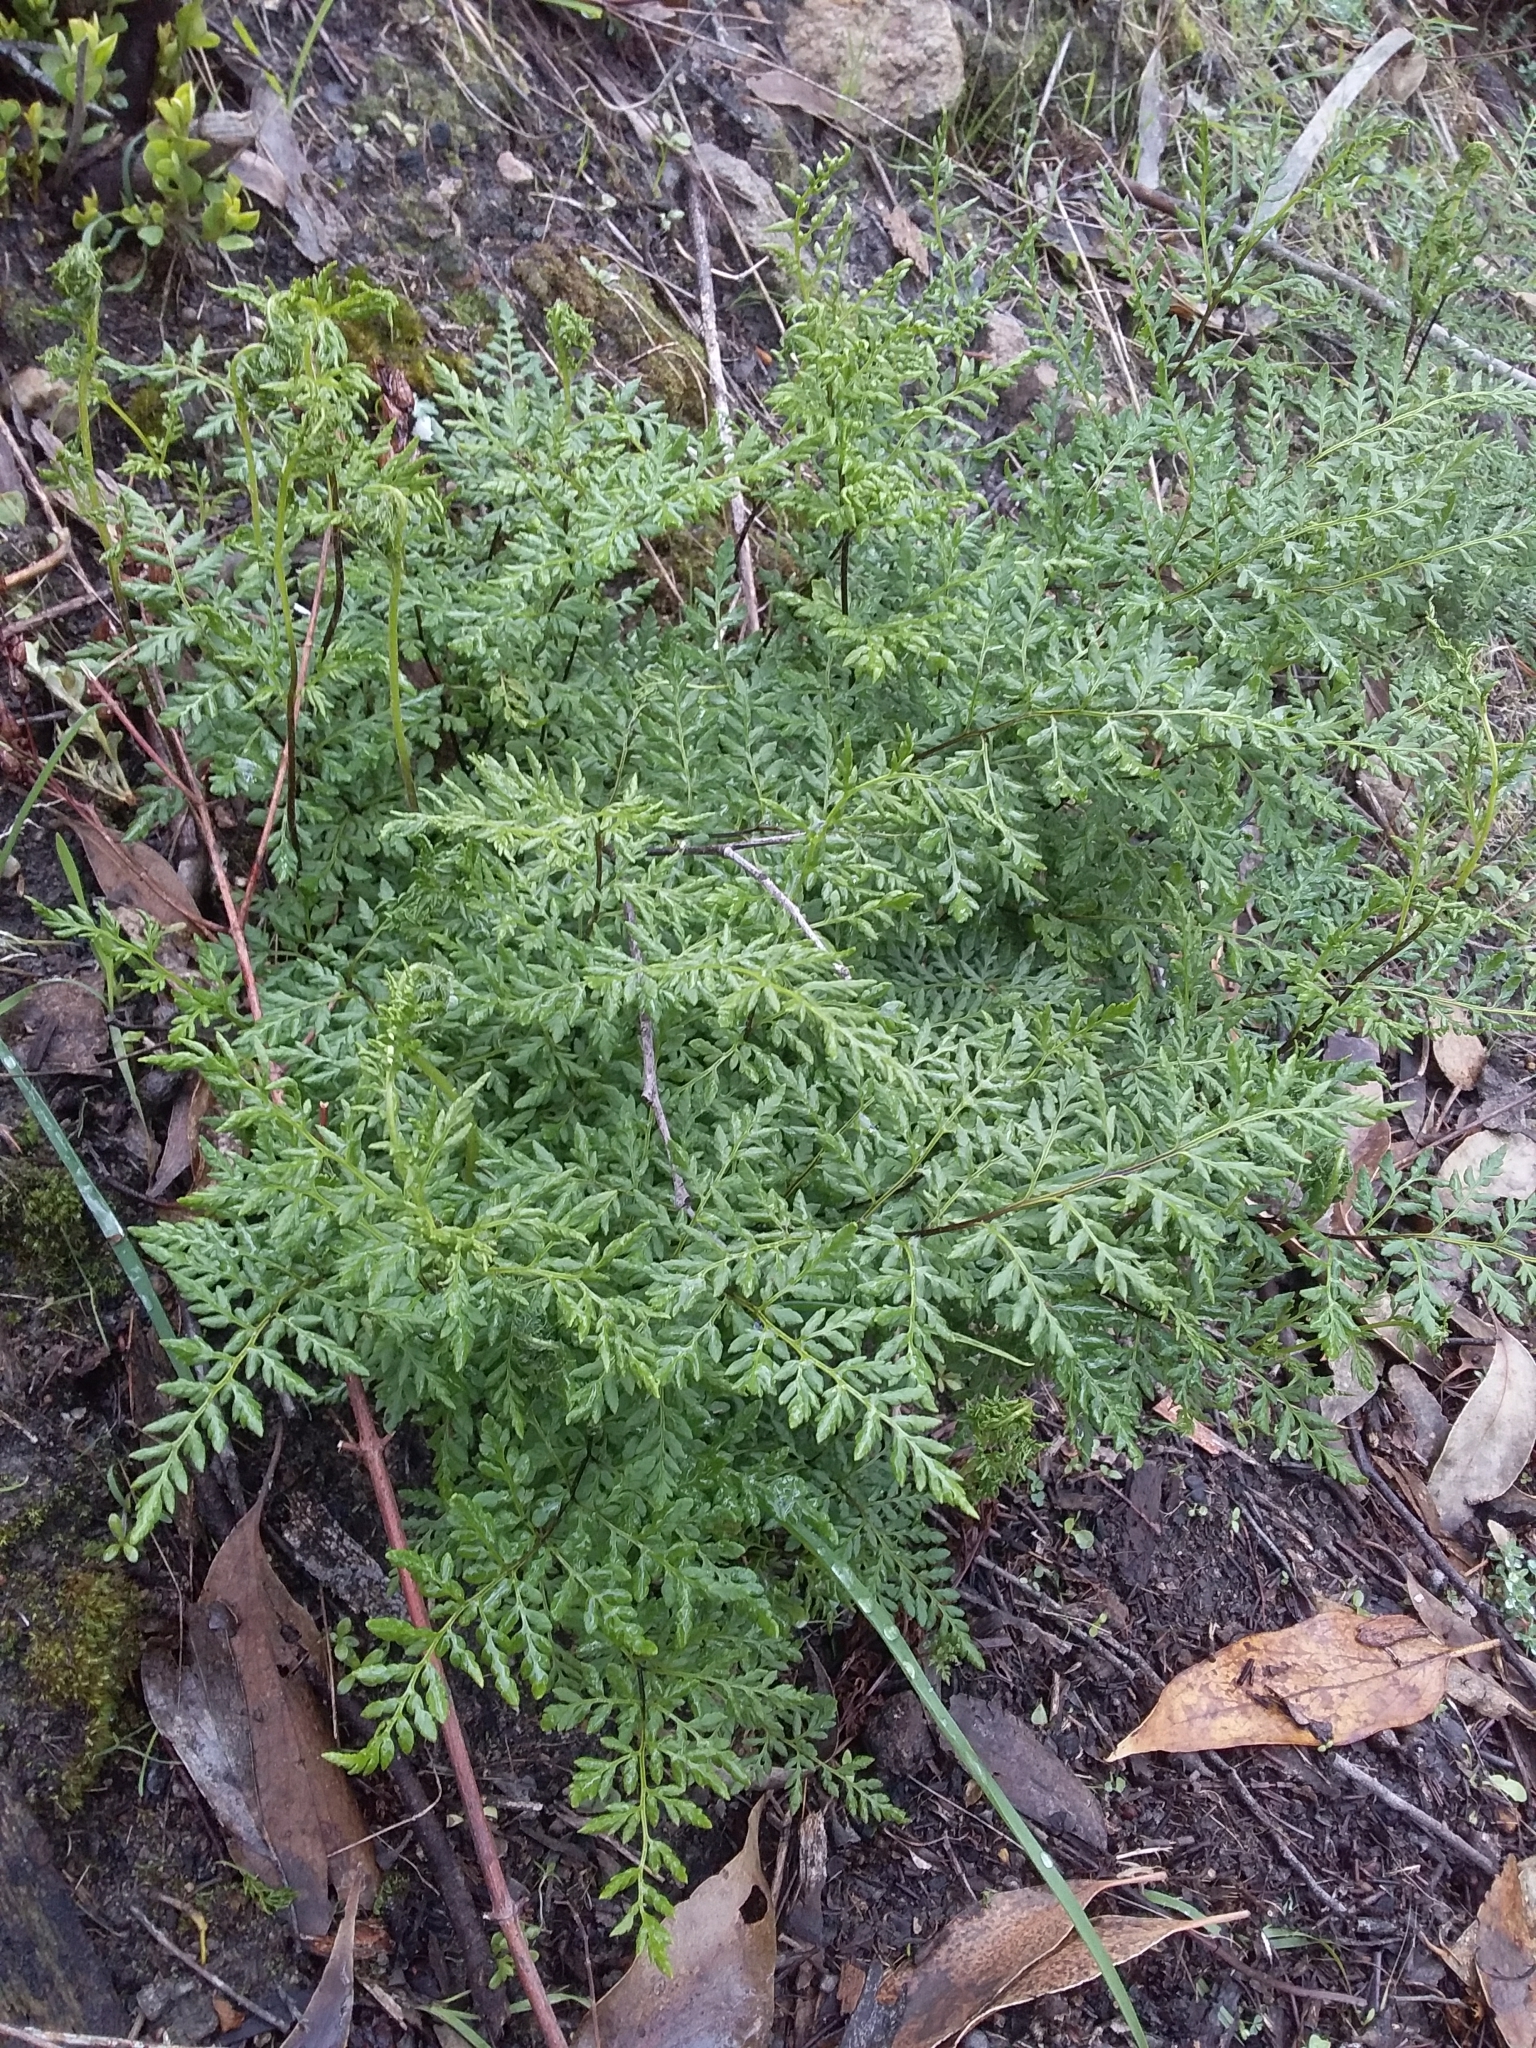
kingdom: Plantae
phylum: Tracheophyta
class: Polypodiopsida
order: Polypodiales
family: Pteridaceae
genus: Cheilanthes
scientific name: Cheilanthes austrotenuifolia
